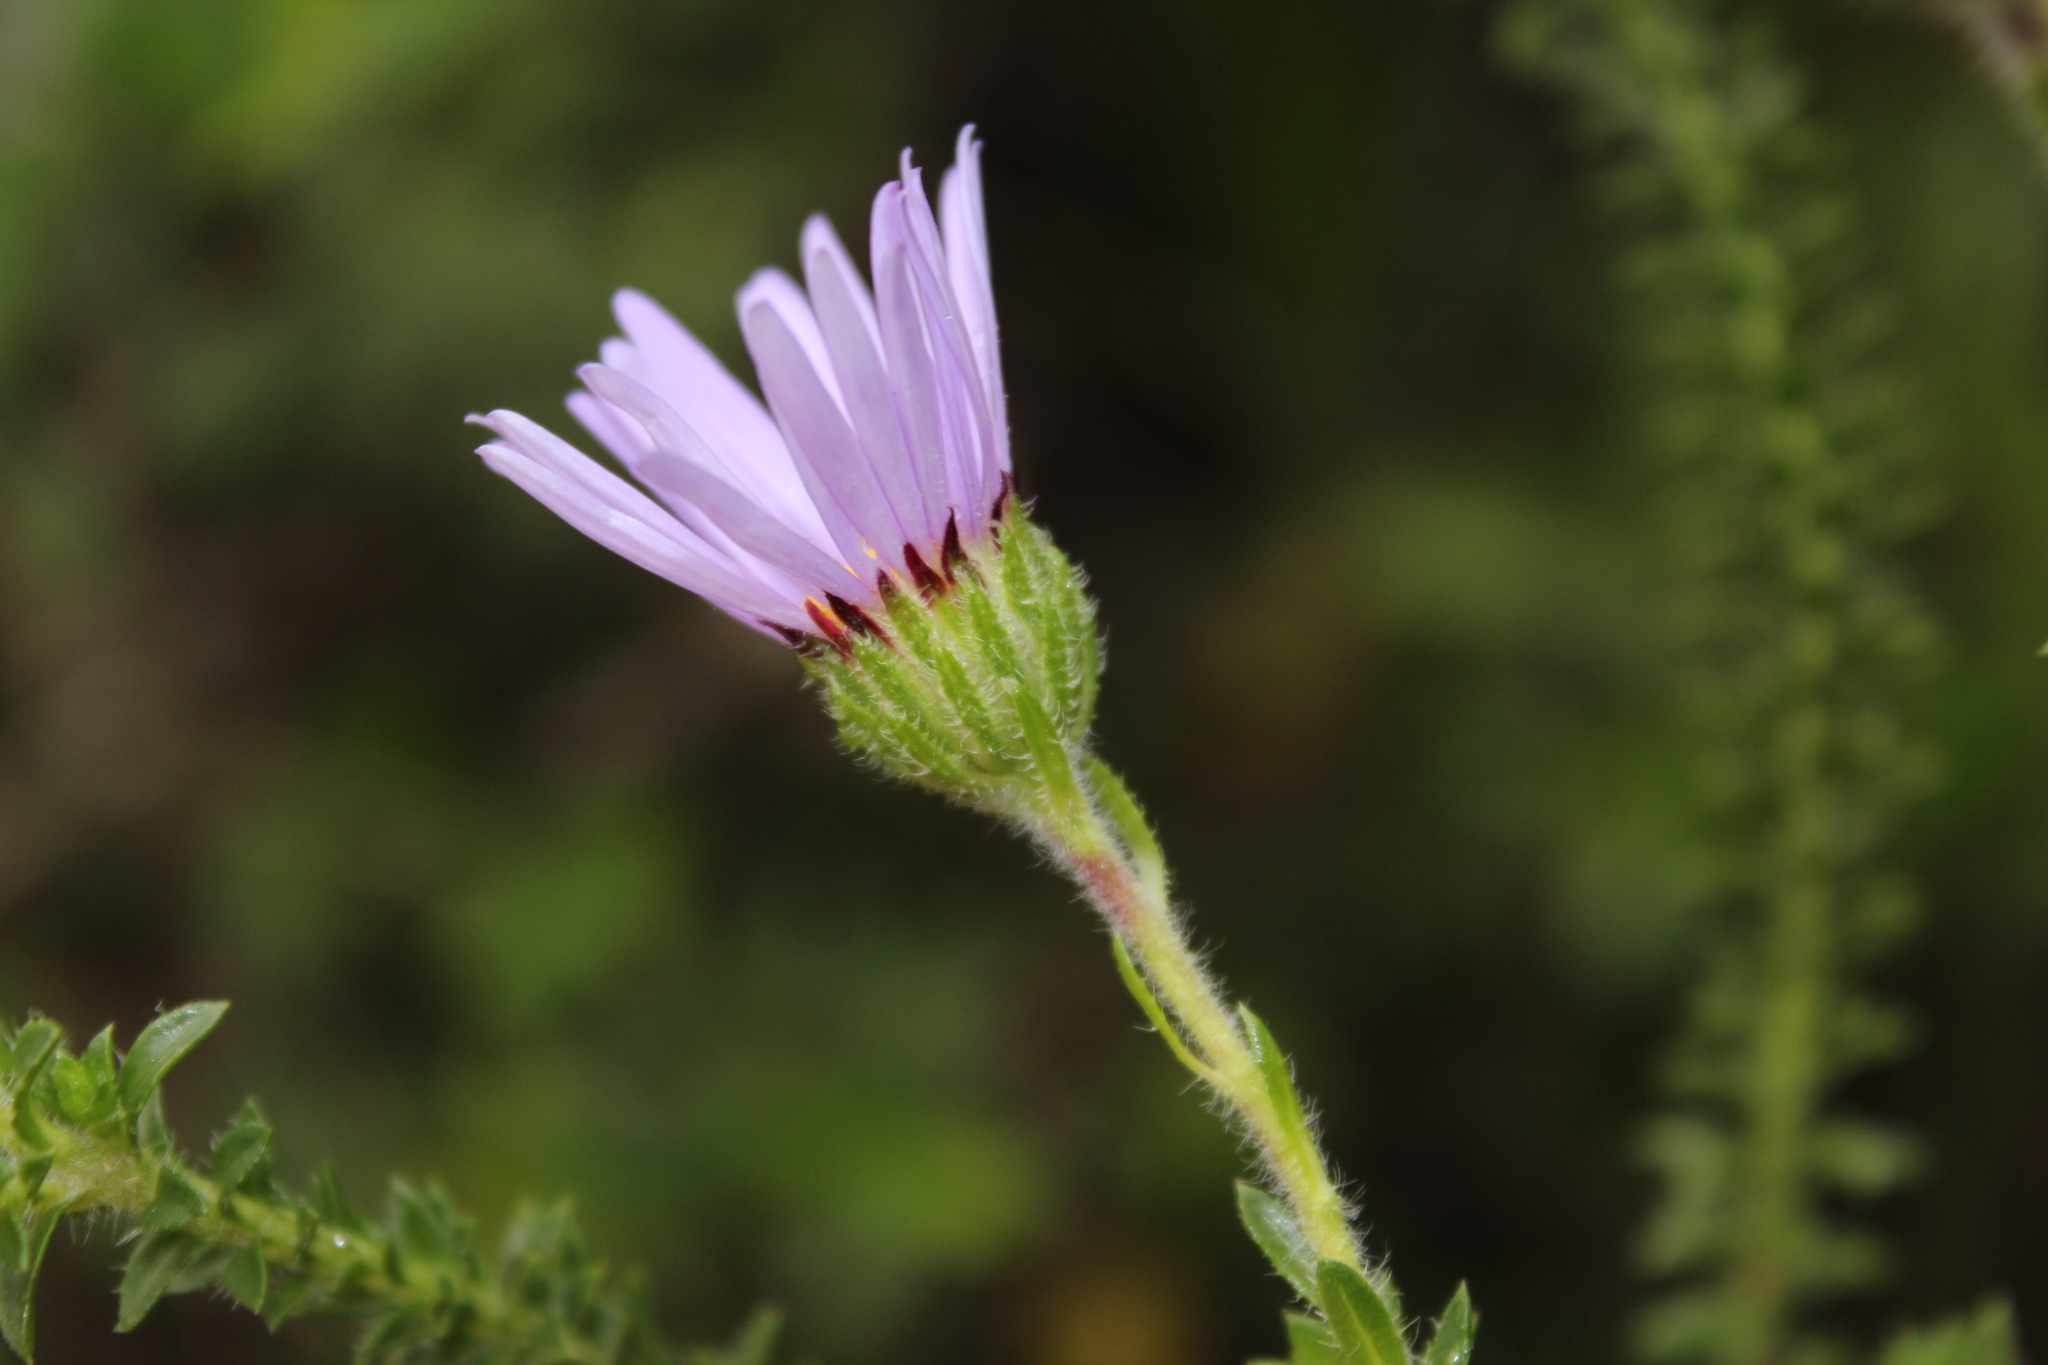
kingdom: Plantae
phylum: Tracheophyta
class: Magnoliopsida
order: Asterales
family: Asteraceae
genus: Felicia
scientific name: Felicia echinata
